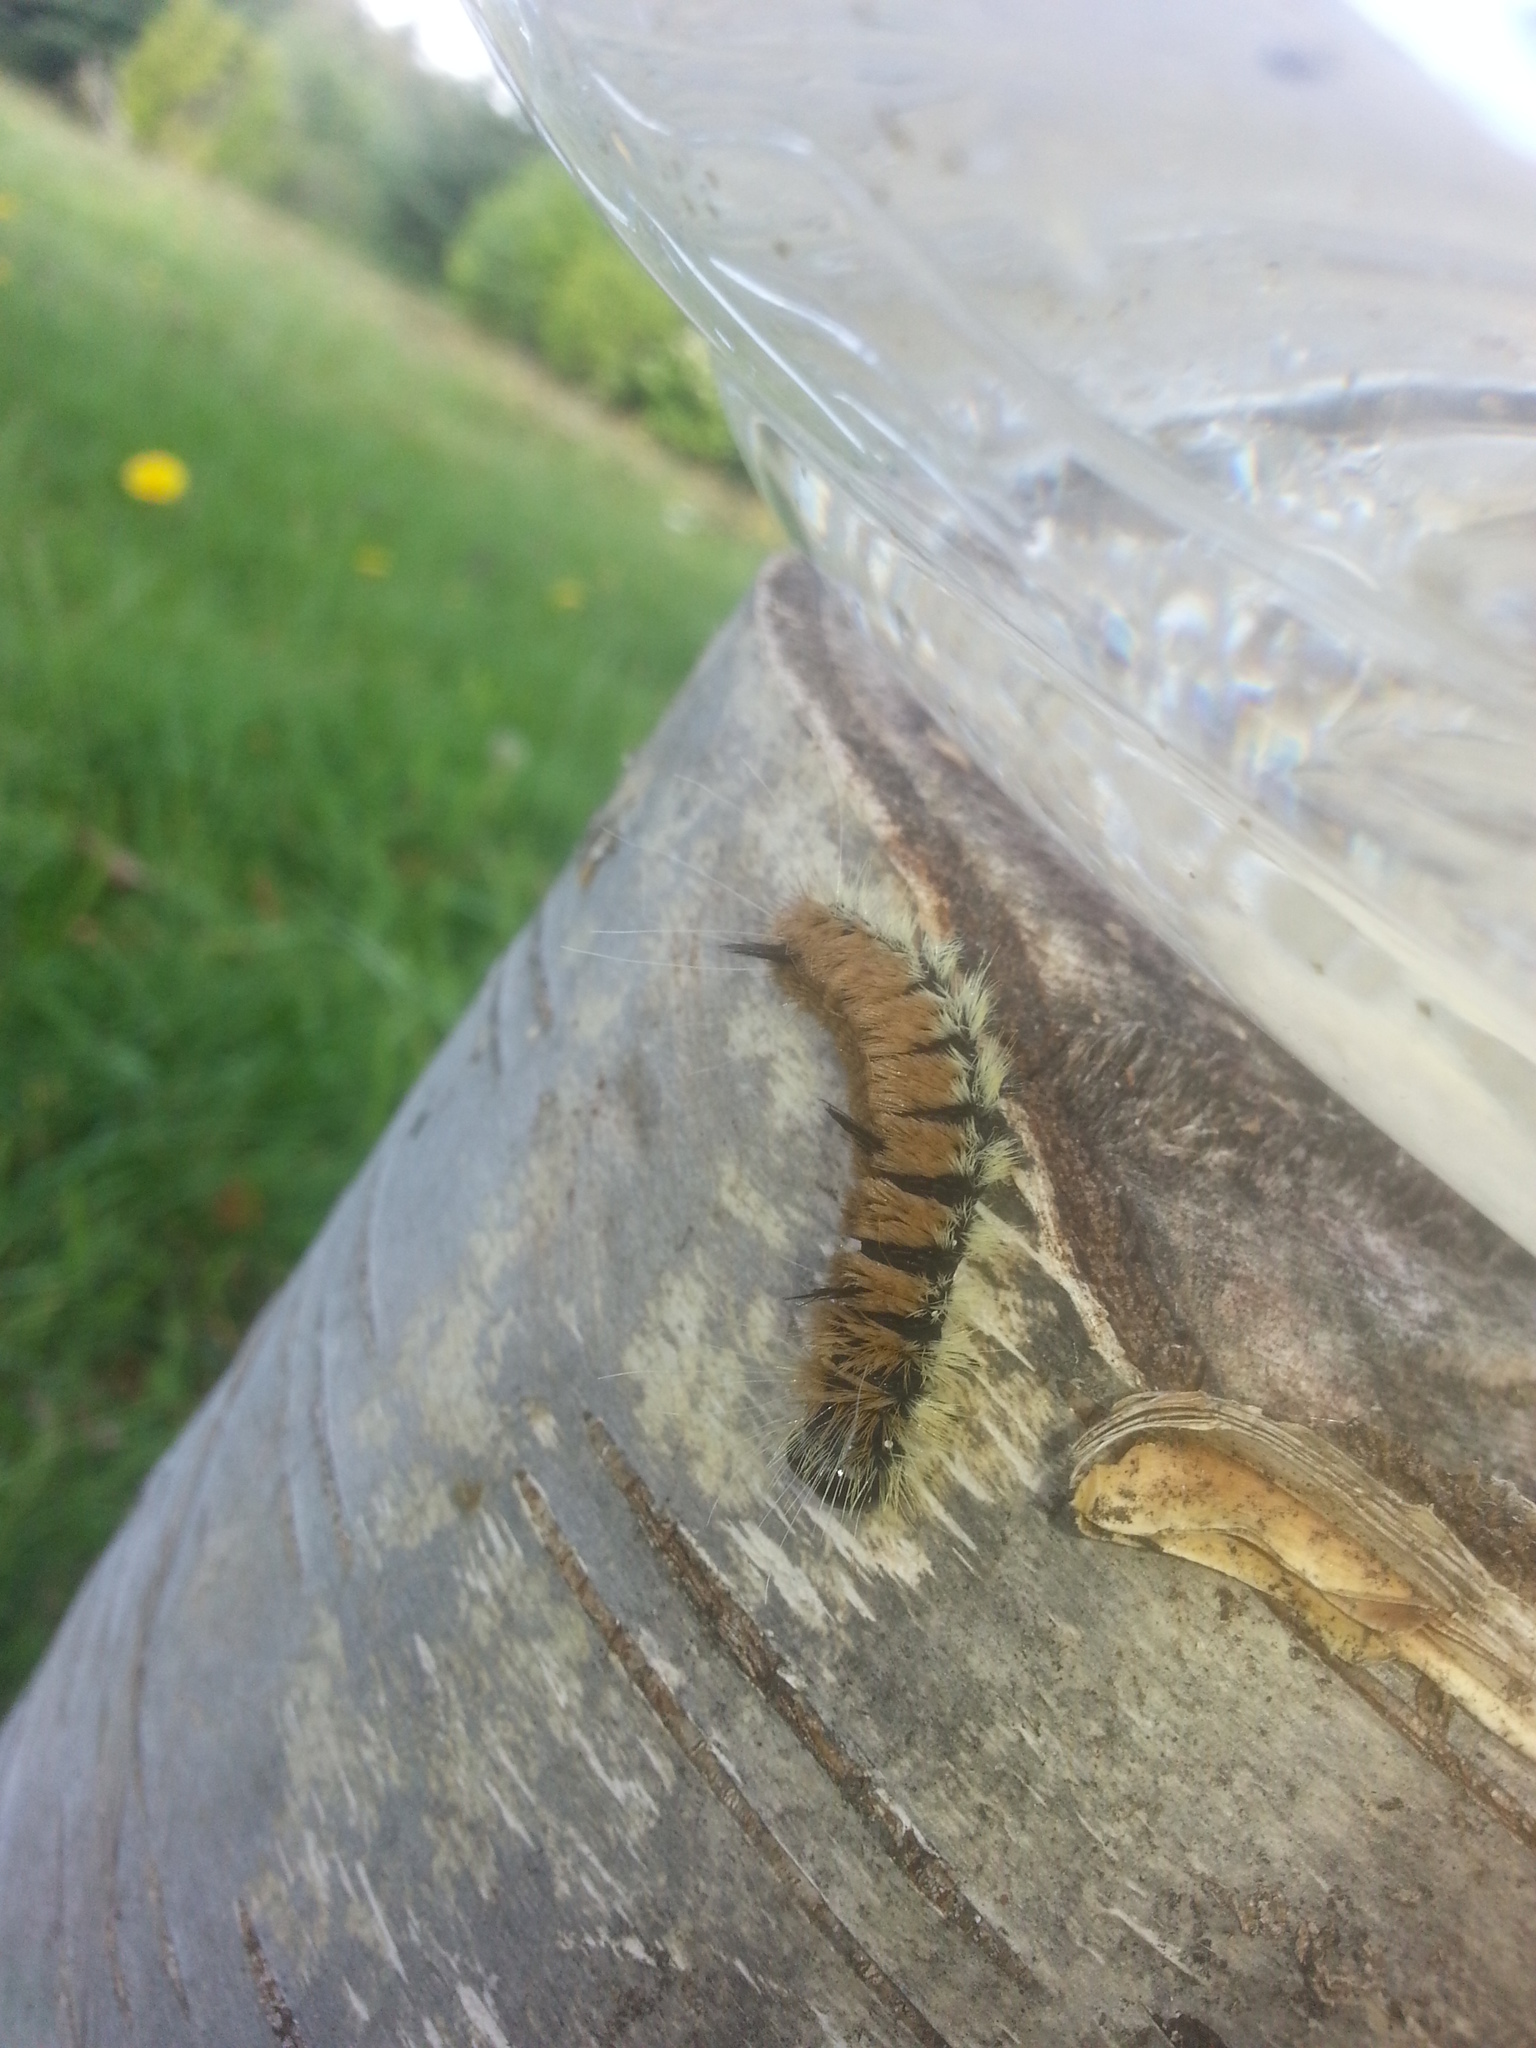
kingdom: Animalia
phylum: Arthropoda
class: Insecta
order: Lepidoptera
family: Noctuidae
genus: Acronicta
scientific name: Acronicta insita
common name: Large gray dagger
